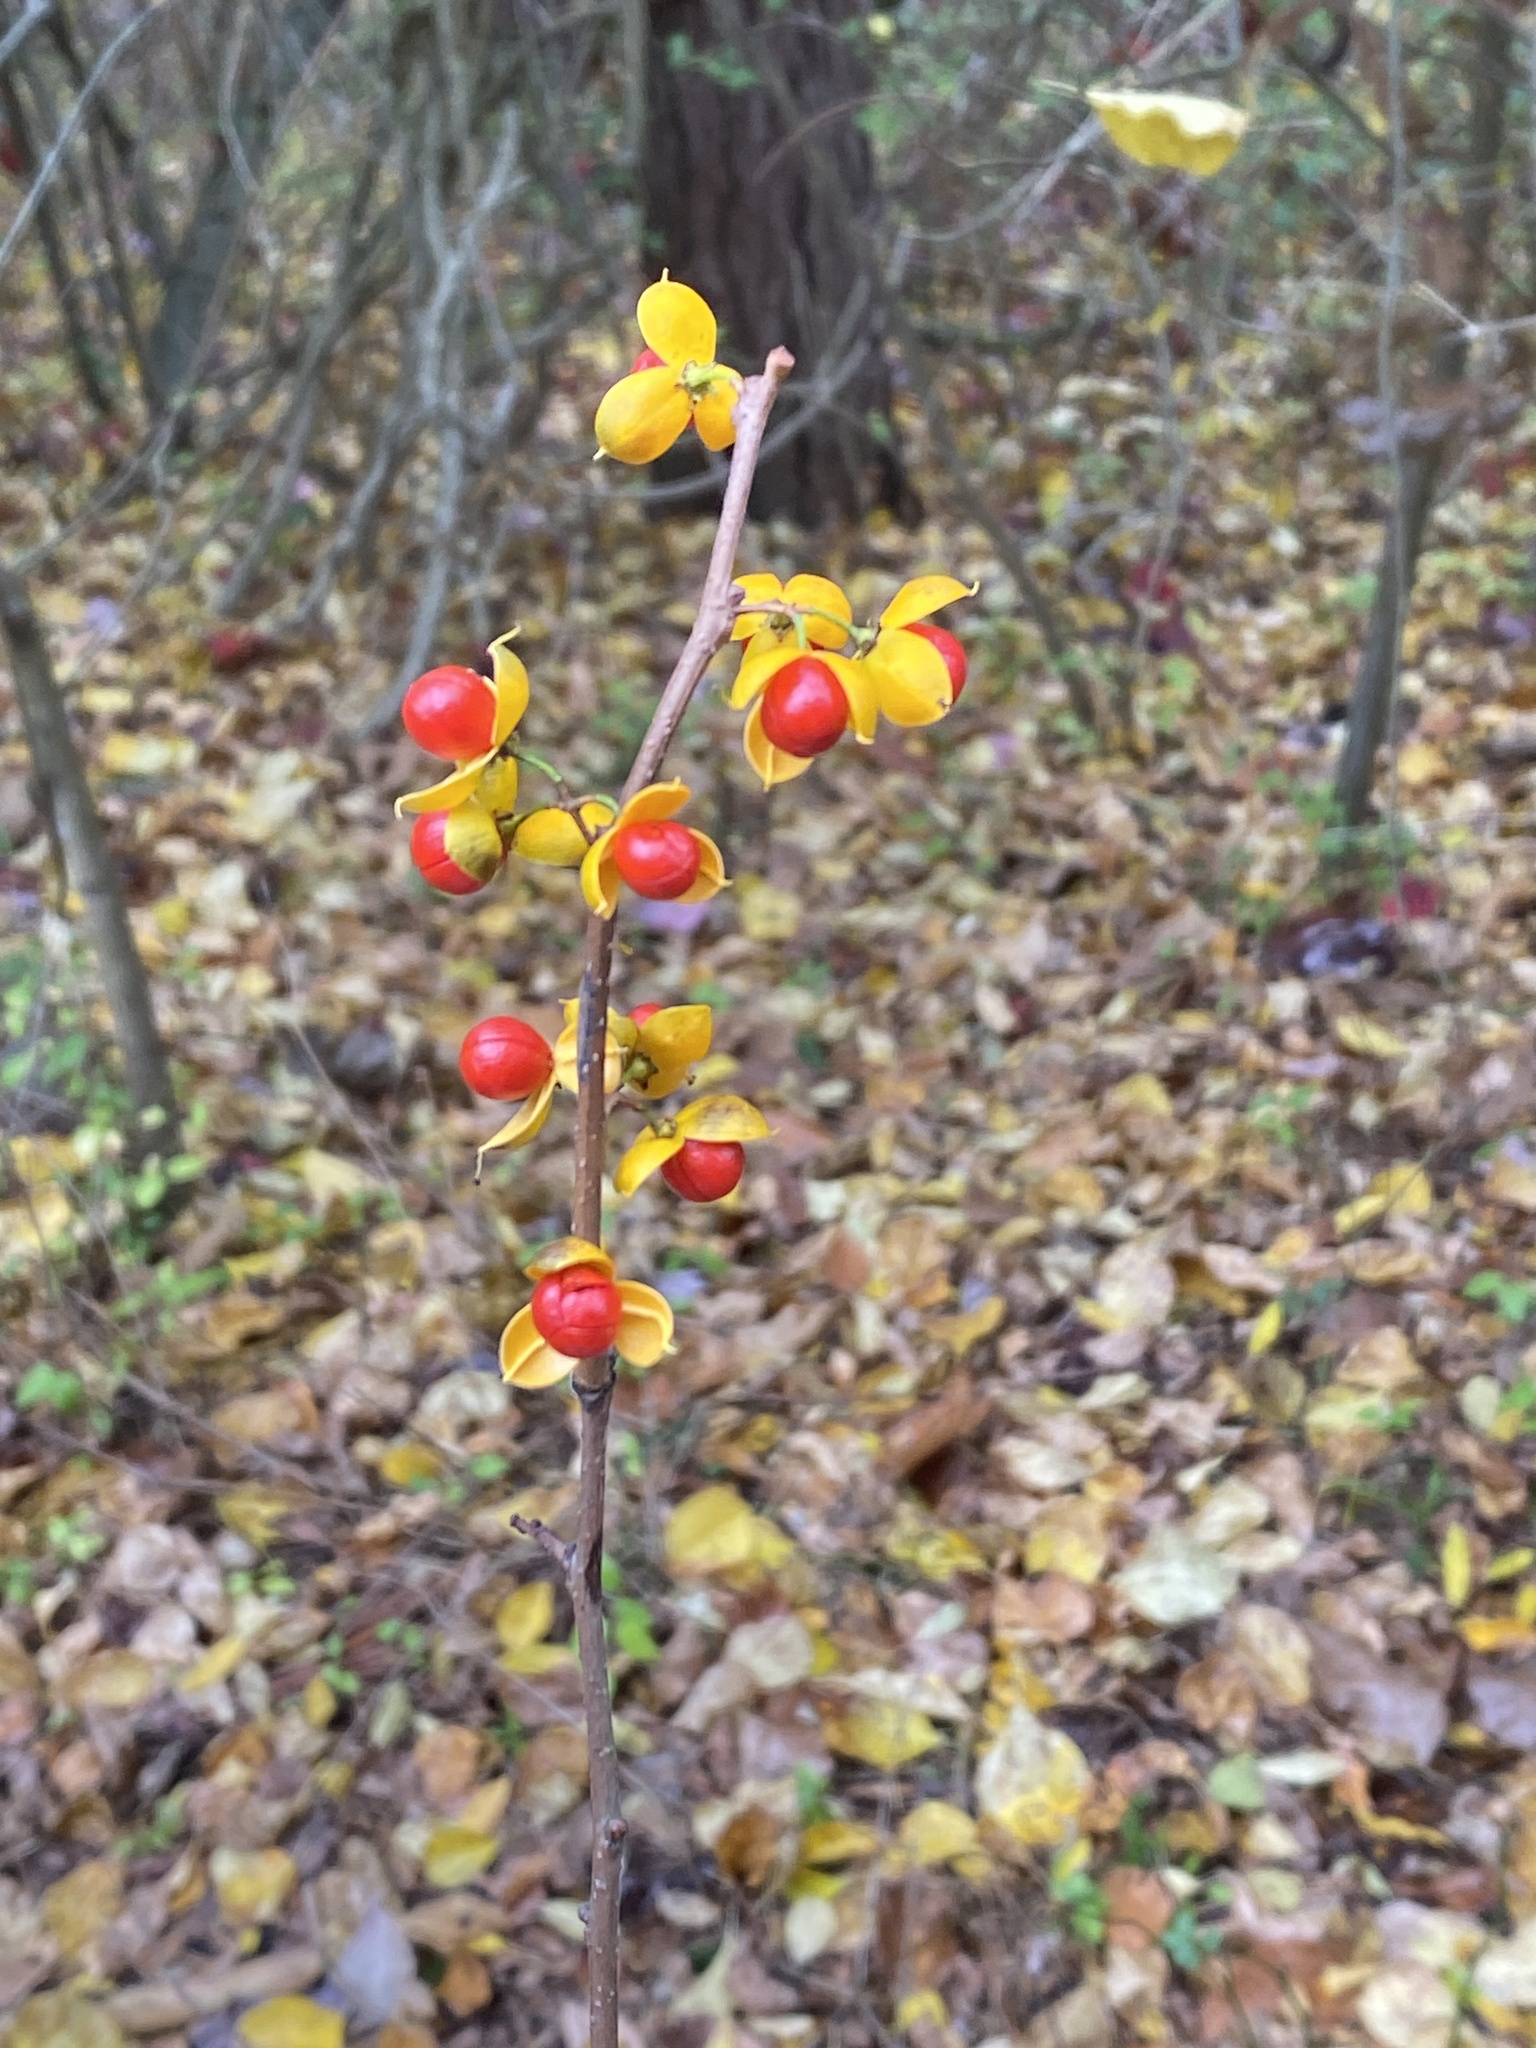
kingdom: Plantae
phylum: Tracheophyta
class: Magnoliopsida
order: Celastrales
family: Celastraceae
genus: Celastrus
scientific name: Celastrus orbiculatus
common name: Oriental bittersweet
